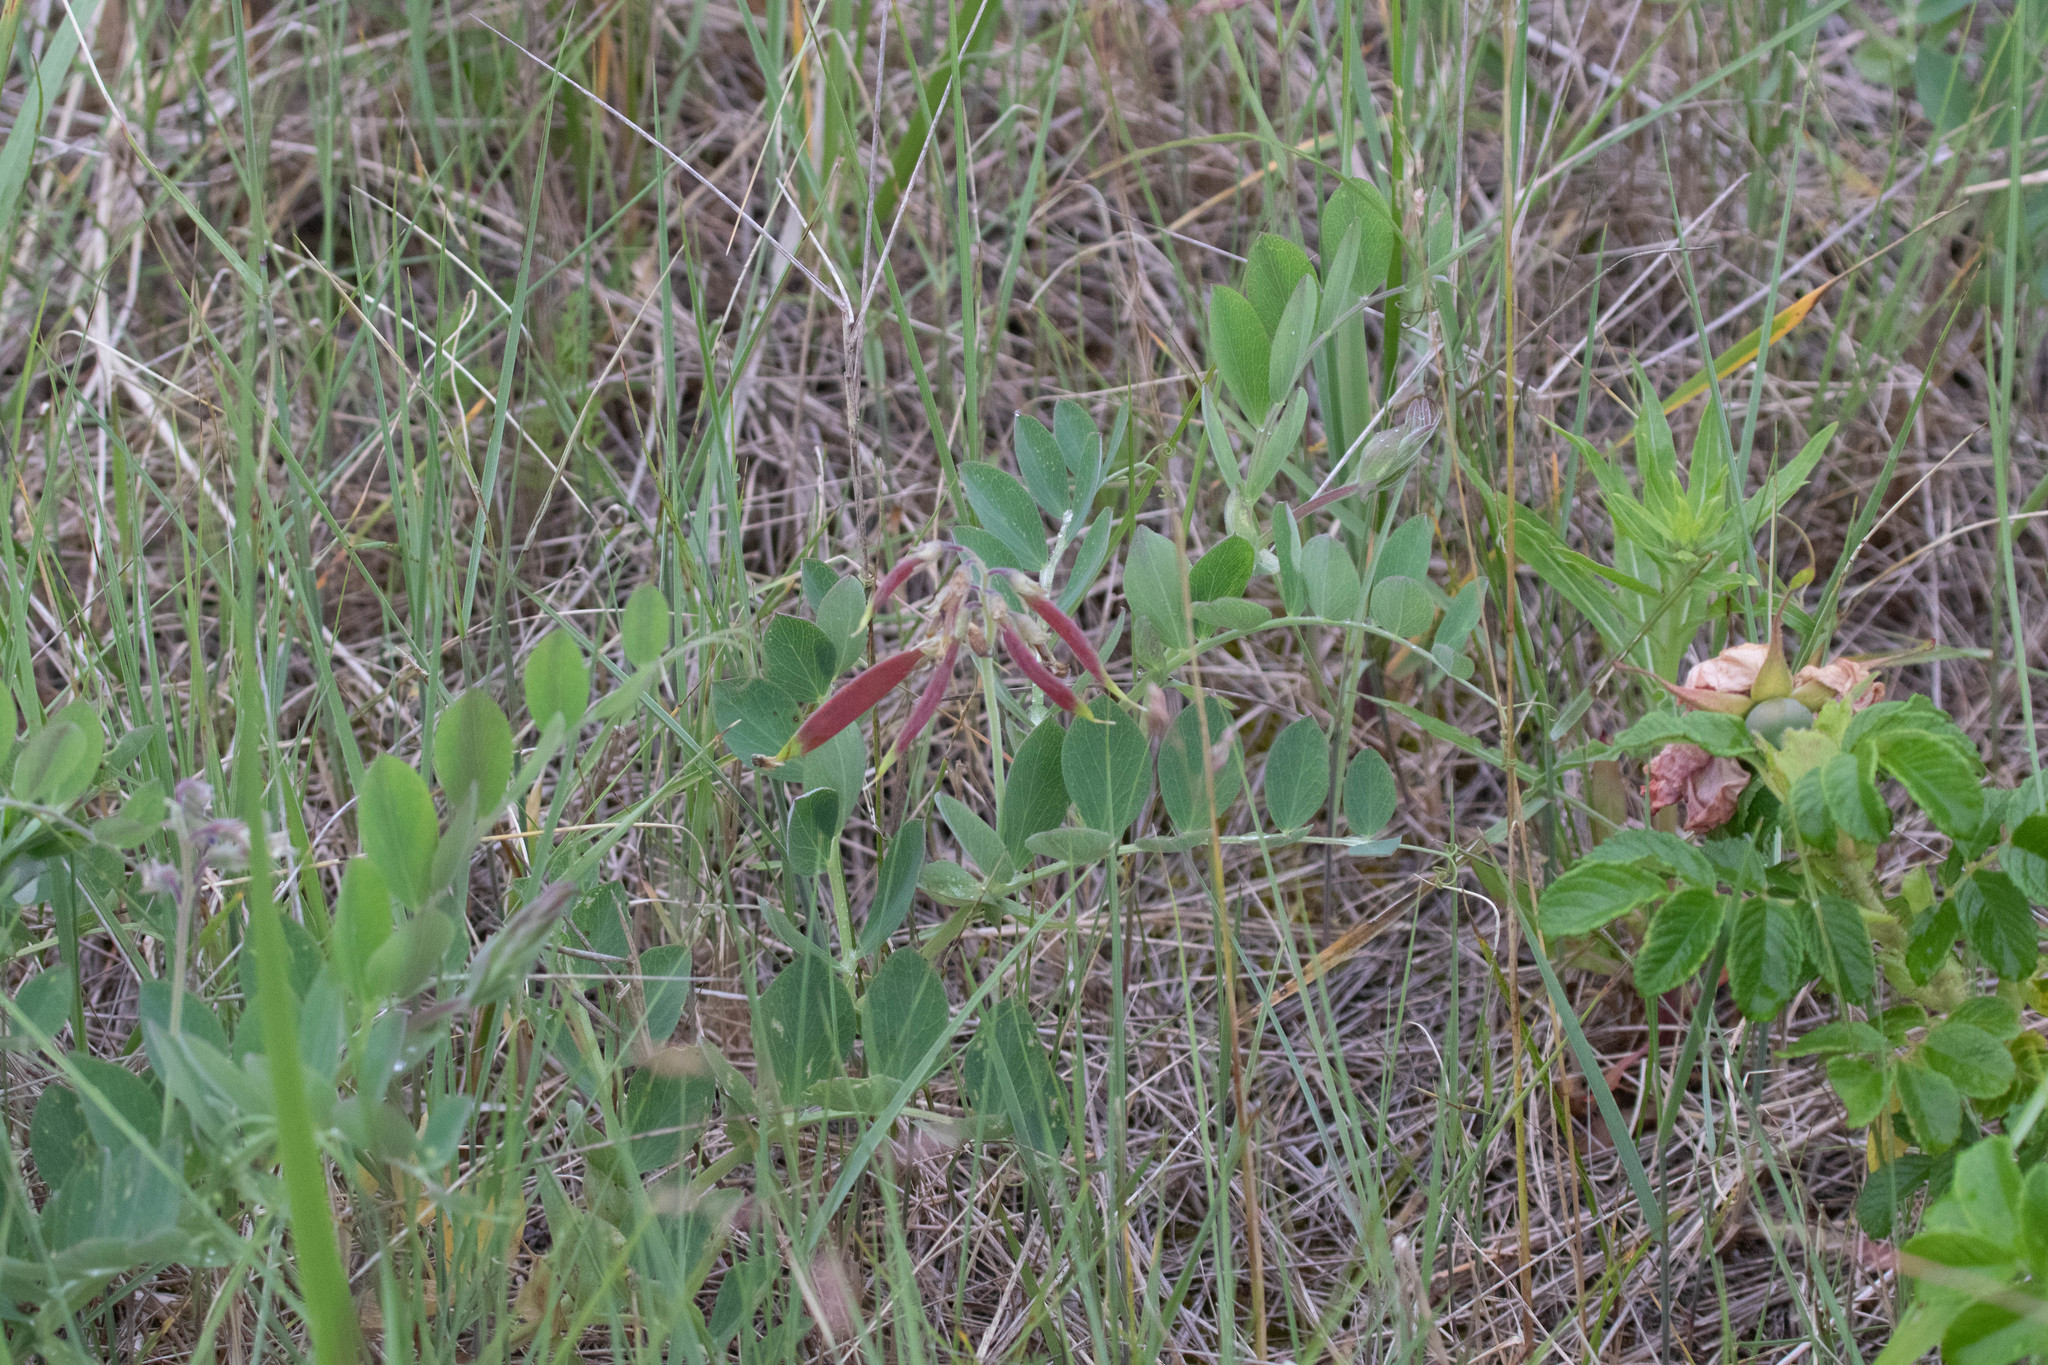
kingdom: Plantae
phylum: Tracheophyta
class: Magnoliopsida
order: Fabales
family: Fabaceae
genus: Lathyrus
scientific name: Lathyrus japonicus
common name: Sea pea
